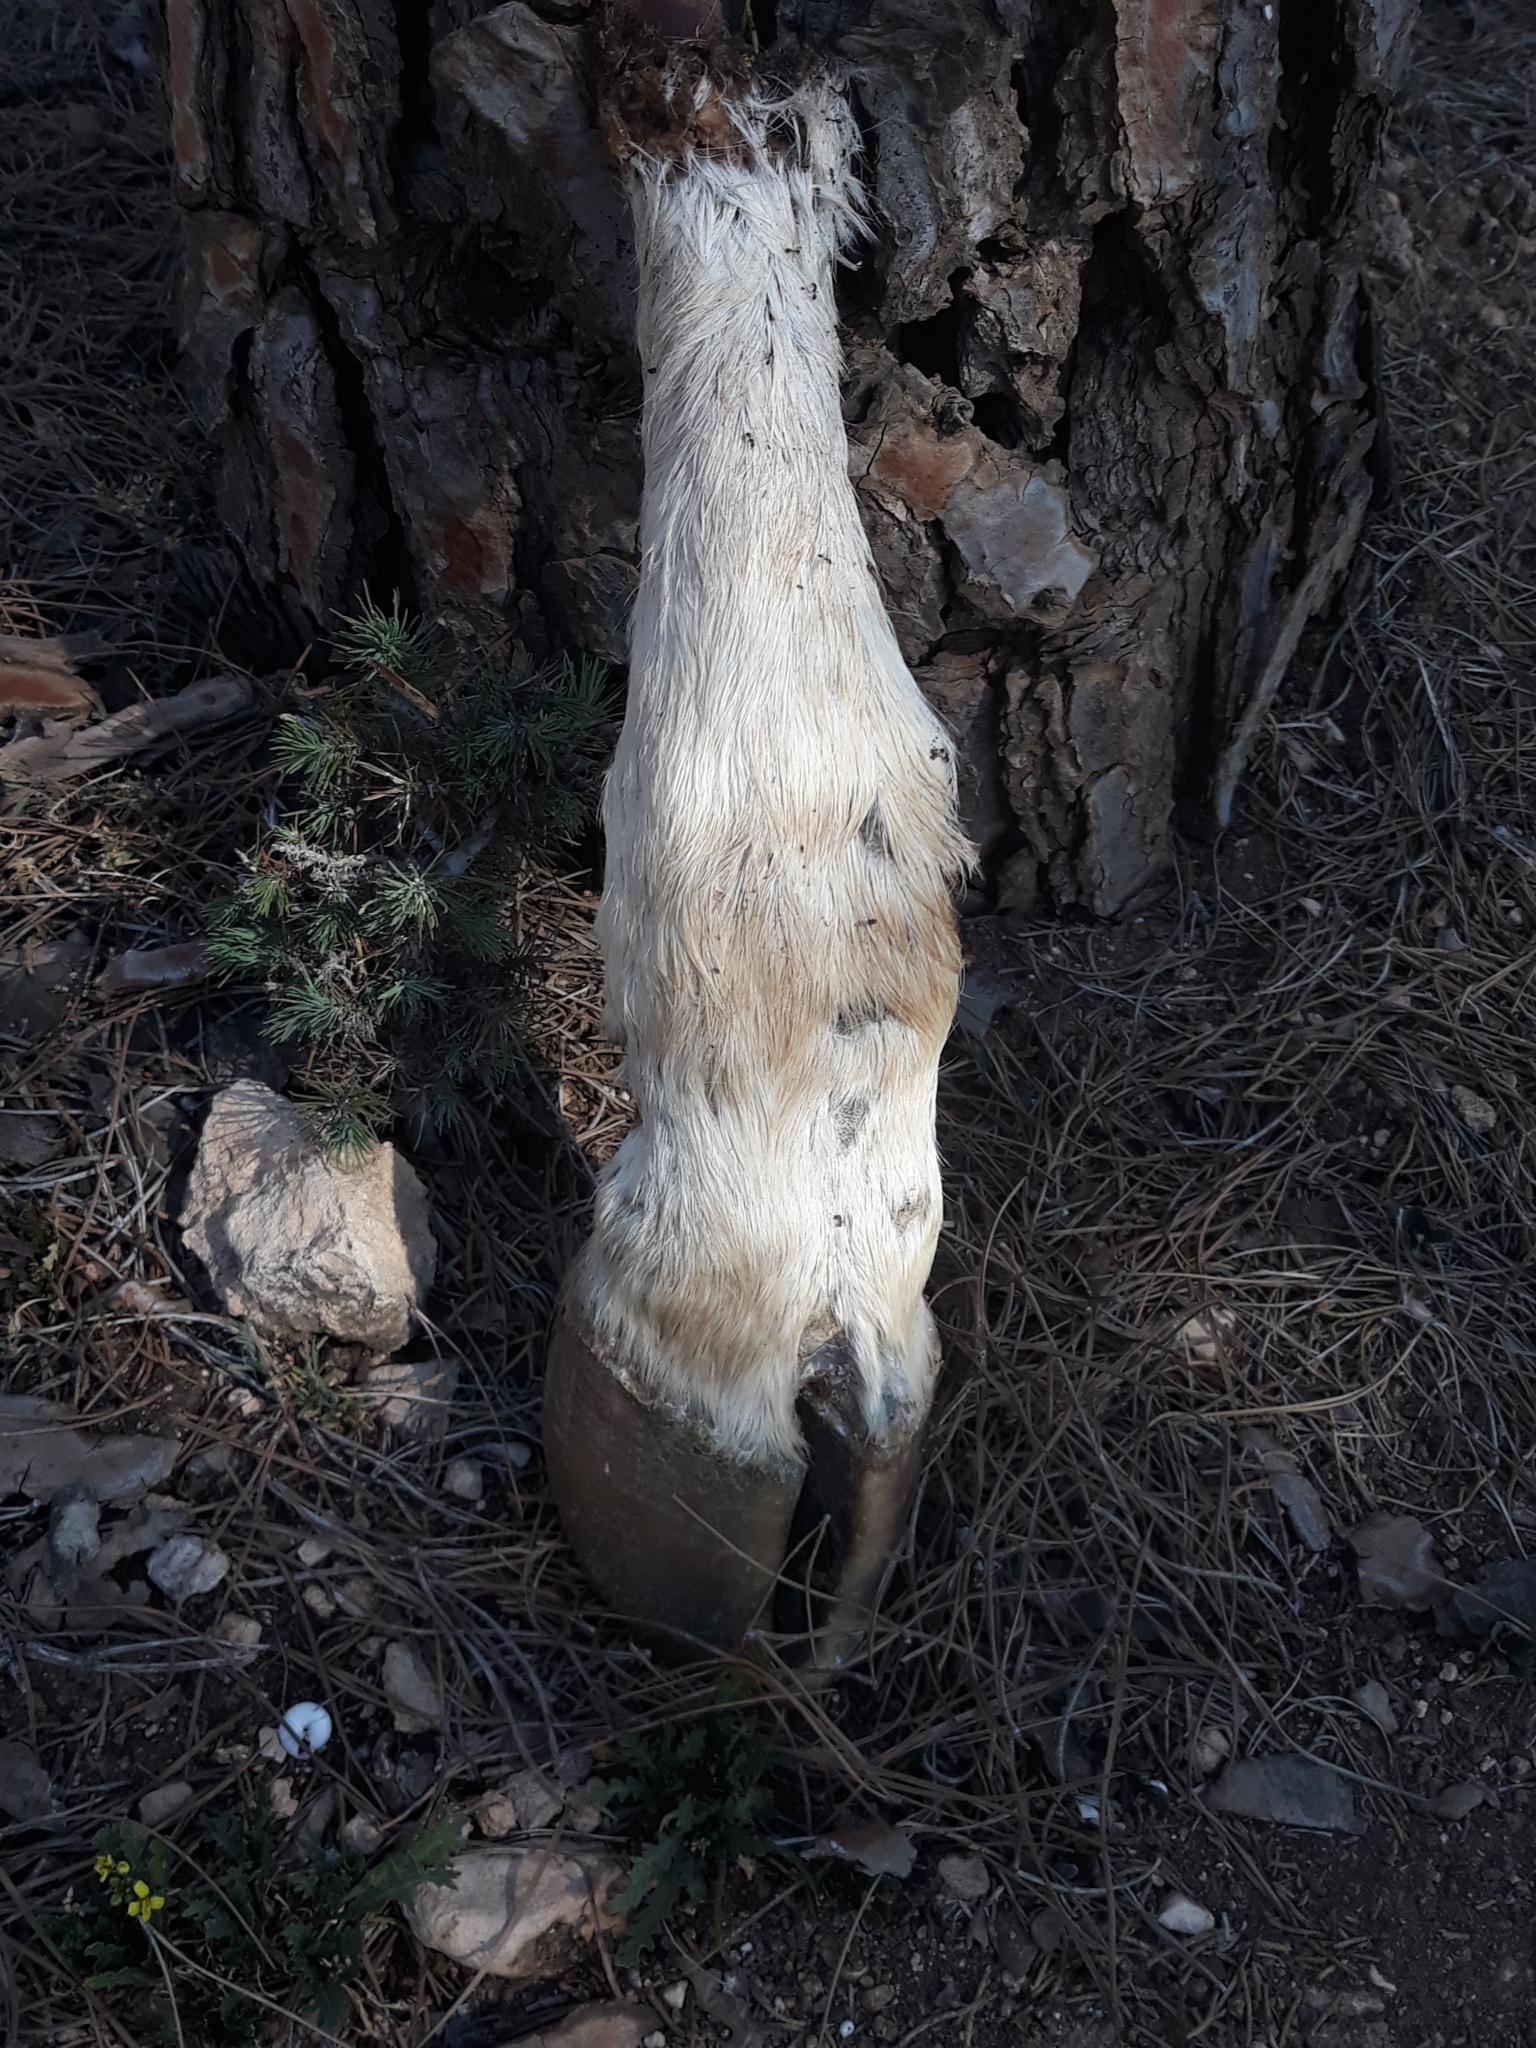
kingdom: Animalia
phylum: Chordata
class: Mammalia
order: Artiodactyla
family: Bovidae
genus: Bos
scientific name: Bos taurus
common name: Domesticated cattle
